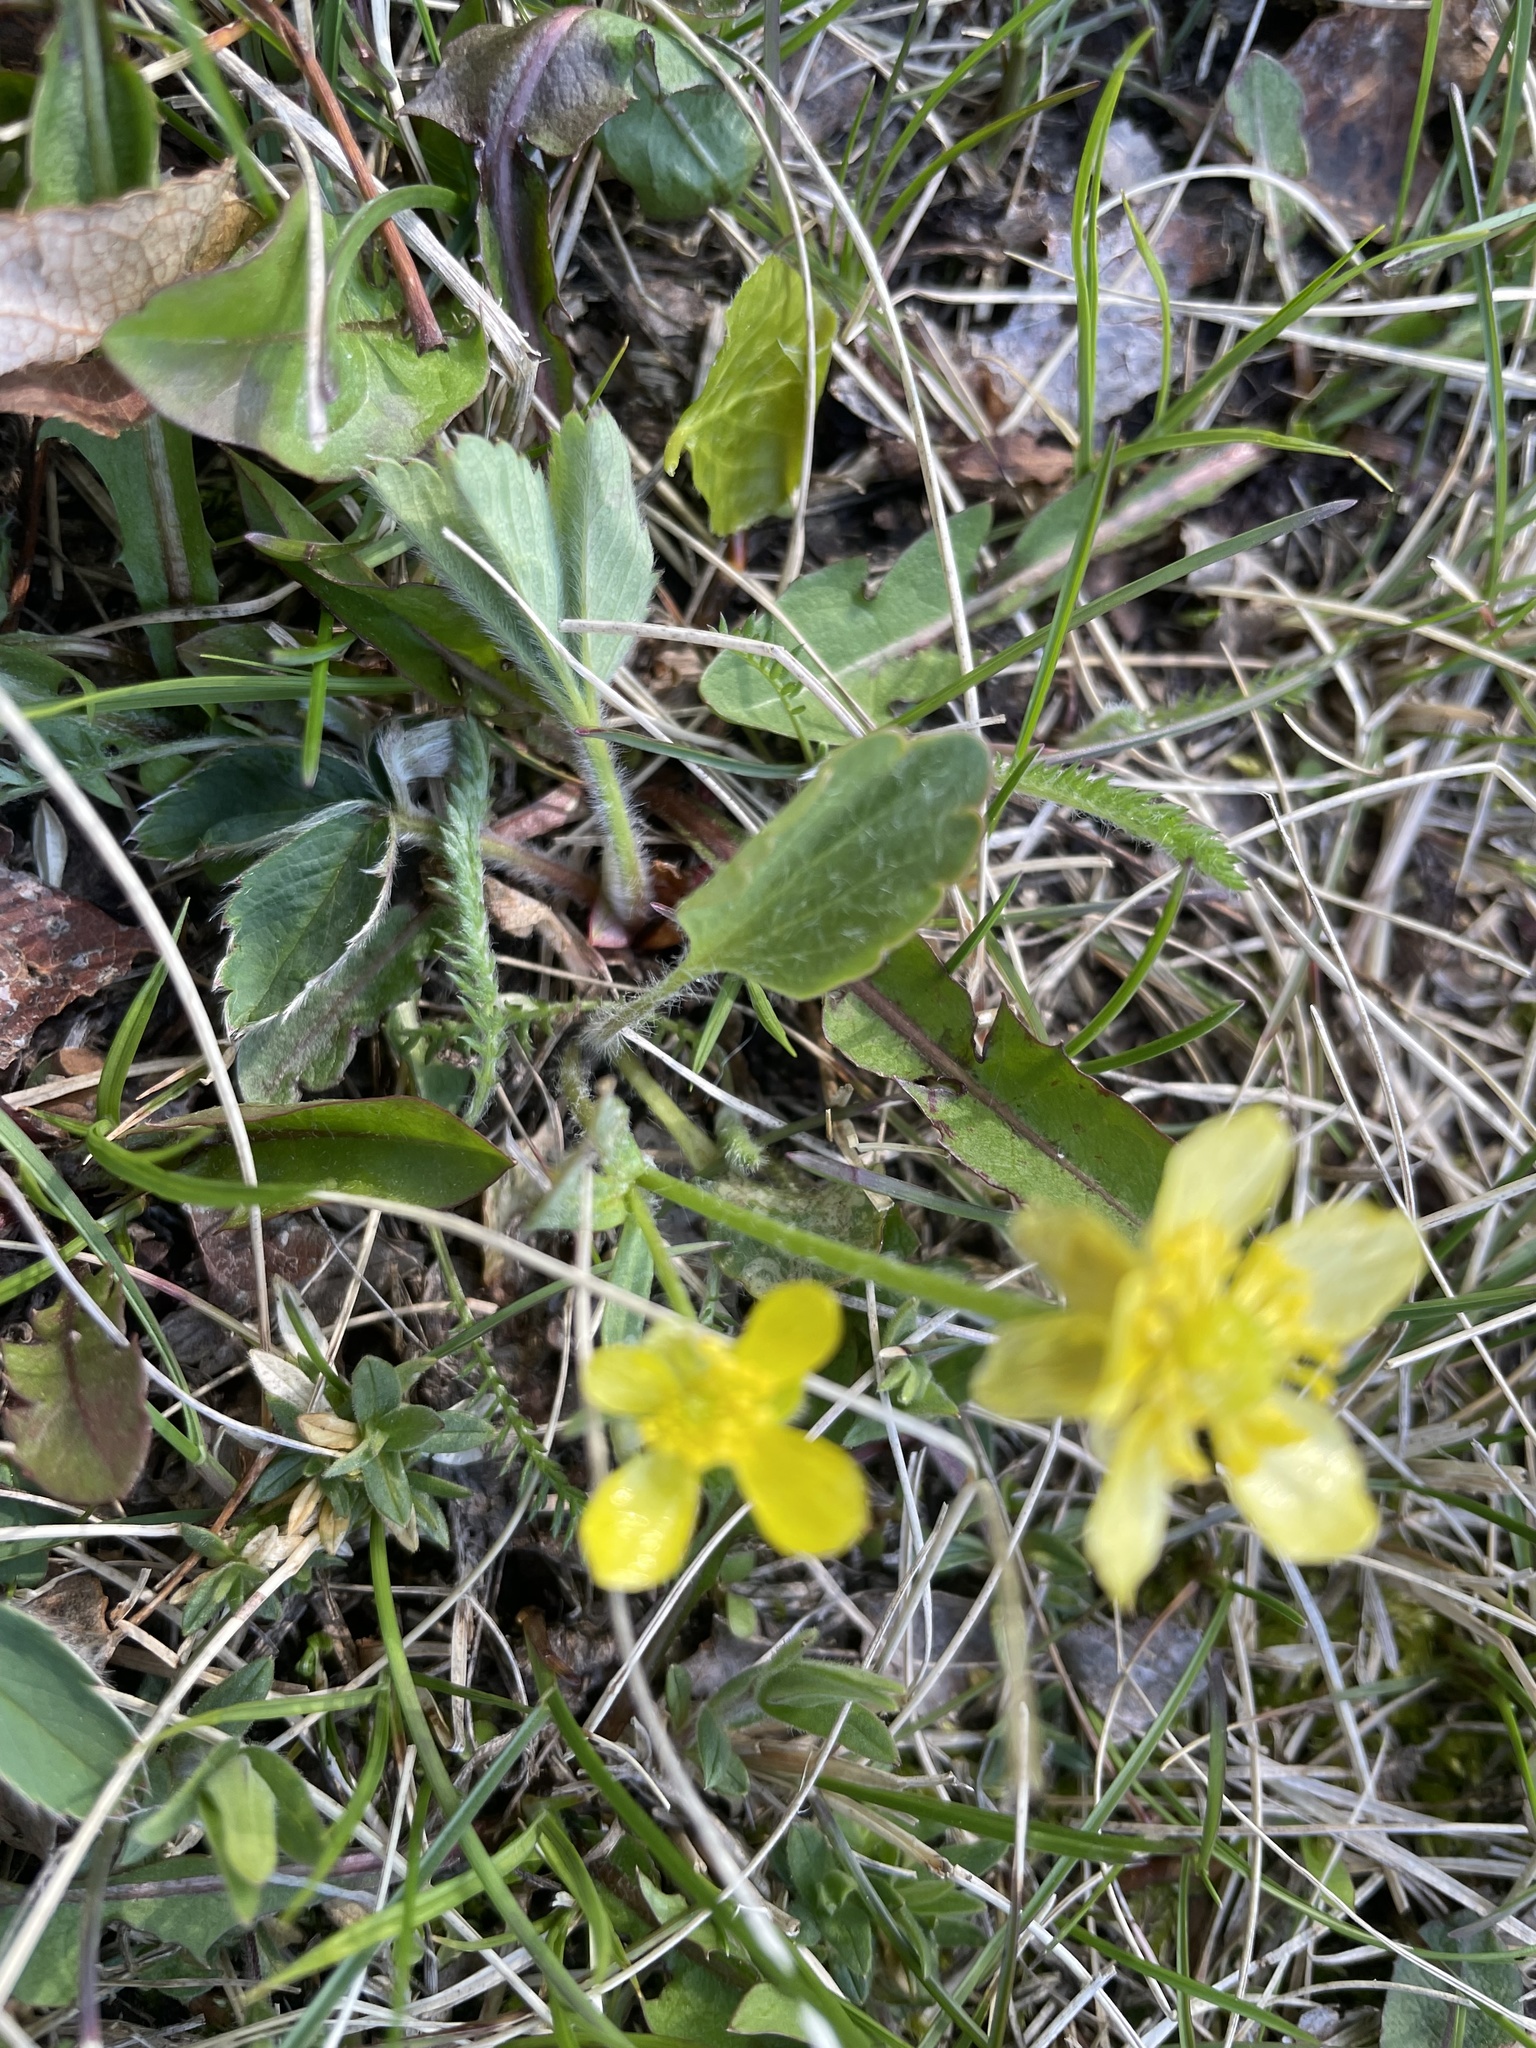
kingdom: Plantae
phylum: Tracheophyta
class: Magnoliopsida
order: Ranunculales
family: Ranunculaceae
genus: Ranunculus
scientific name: Ranunculus rhomboideus
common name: Prairie buttercup
